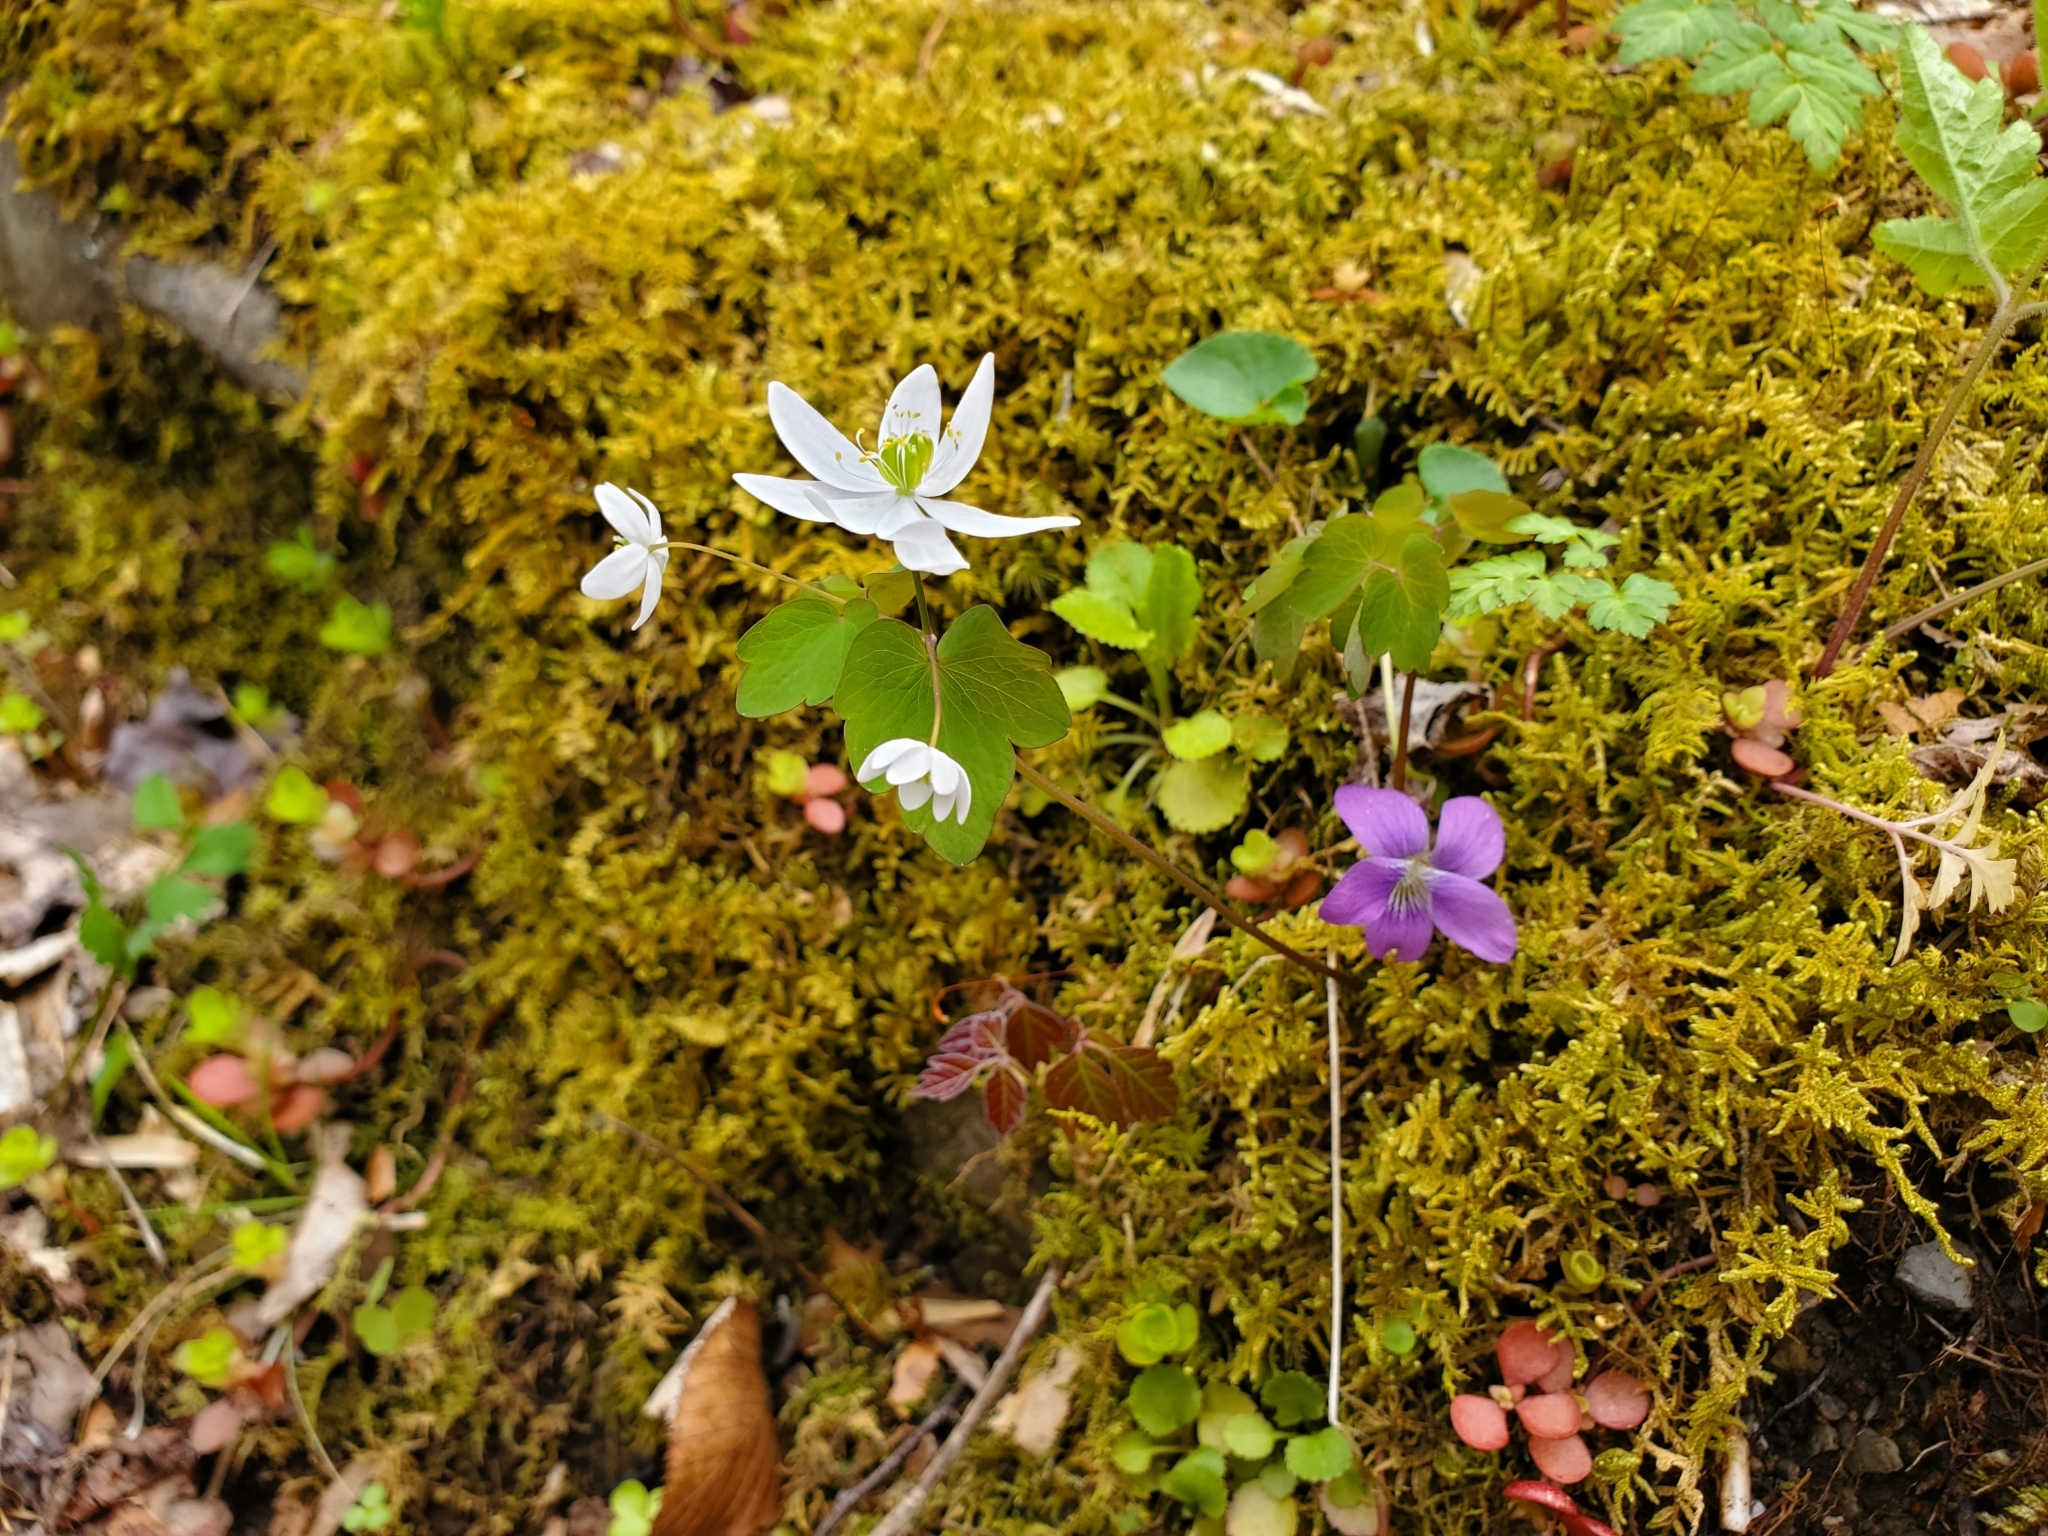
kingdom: Plantae
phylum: Tracheophyta
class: Magnoliopsida
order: Ranunculales
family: Ranunculaceae
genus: Thalictrum
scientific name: Thalictrum thalictroides
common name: Rue-anemone
